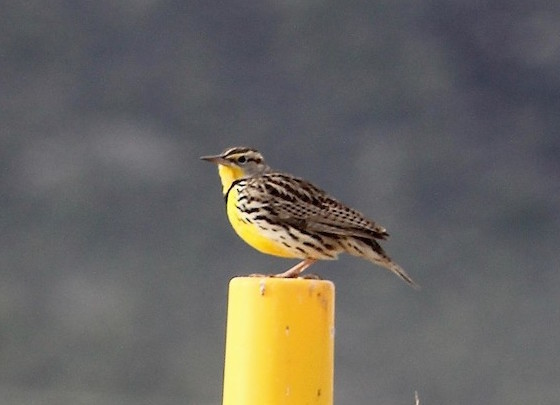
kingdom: Animalia
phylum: Chordata
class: Aves
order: Passeriformes
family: Icteridae
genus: Sturnella
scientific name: Sturnella neglecta
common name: Western meadowlark
